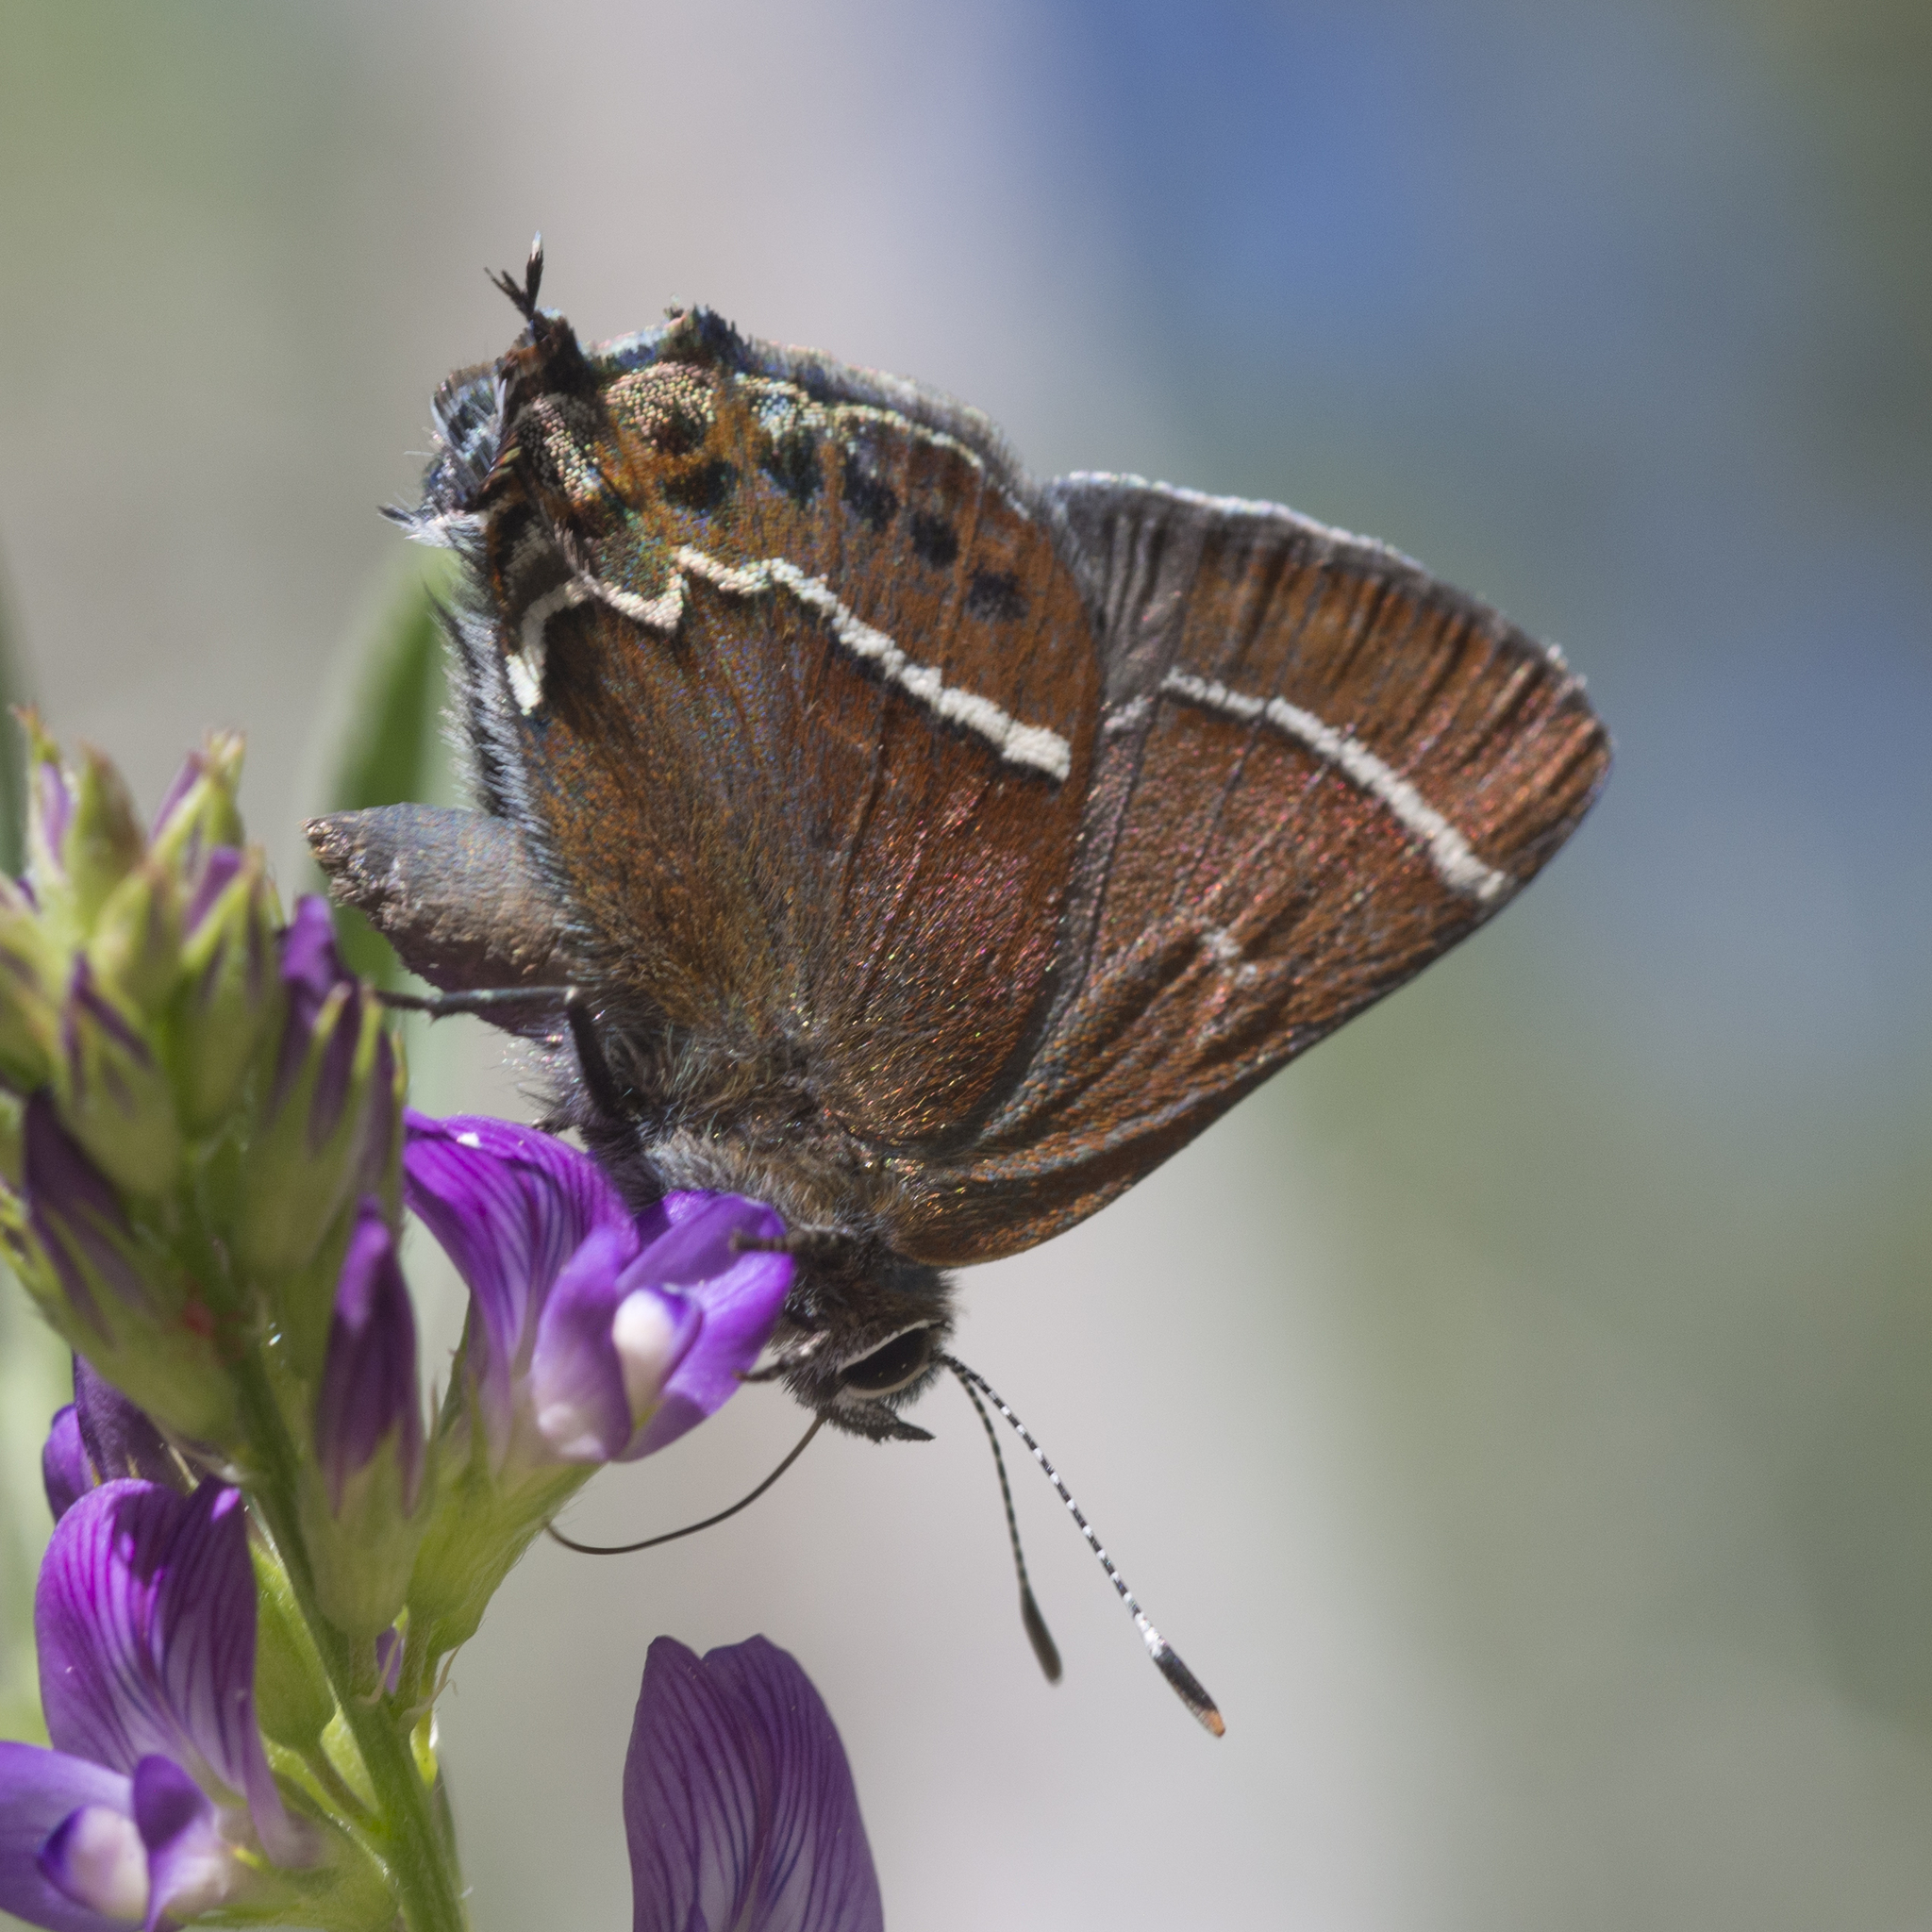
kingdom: Animalia
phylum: Arthropoda
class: Insecta
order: Lepidoptera
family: Lycaenidae
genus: Mitoura
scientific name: Mitoura spinetorum
